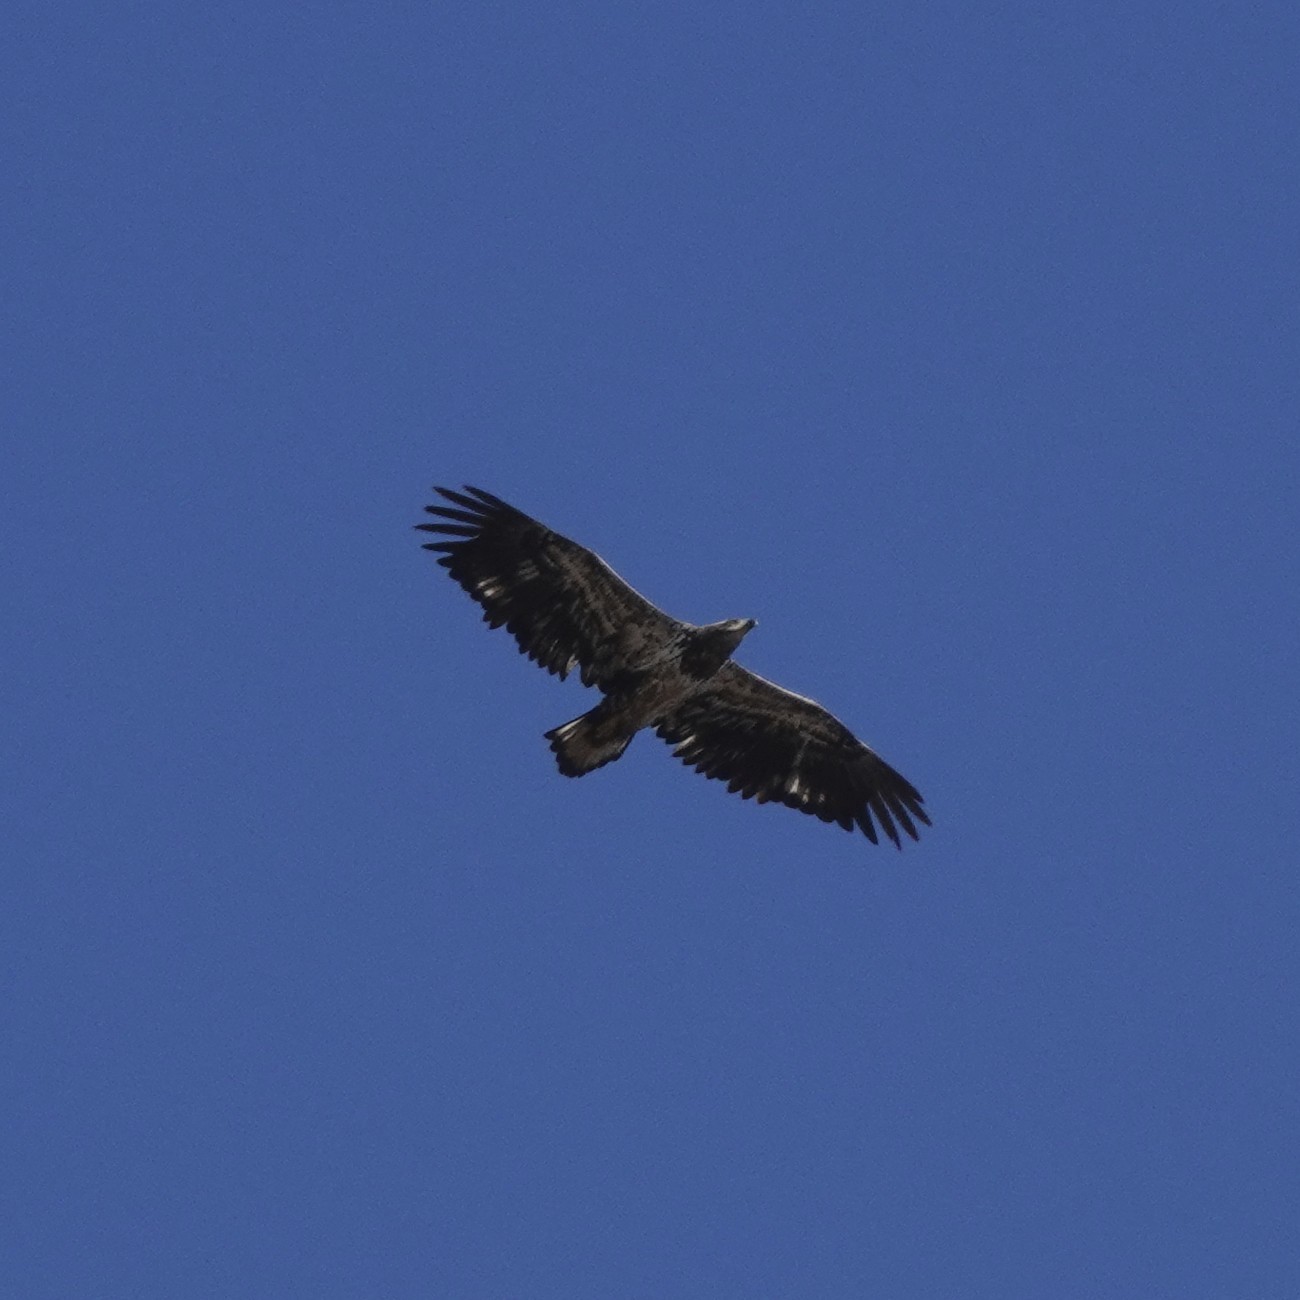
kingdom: Animalia
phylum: Chordata
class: Aves
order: Accipitriformes
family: Accipitridae
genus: Haliaeetus
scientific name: Haliaeetus leucocephalus
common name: Bald eagle
